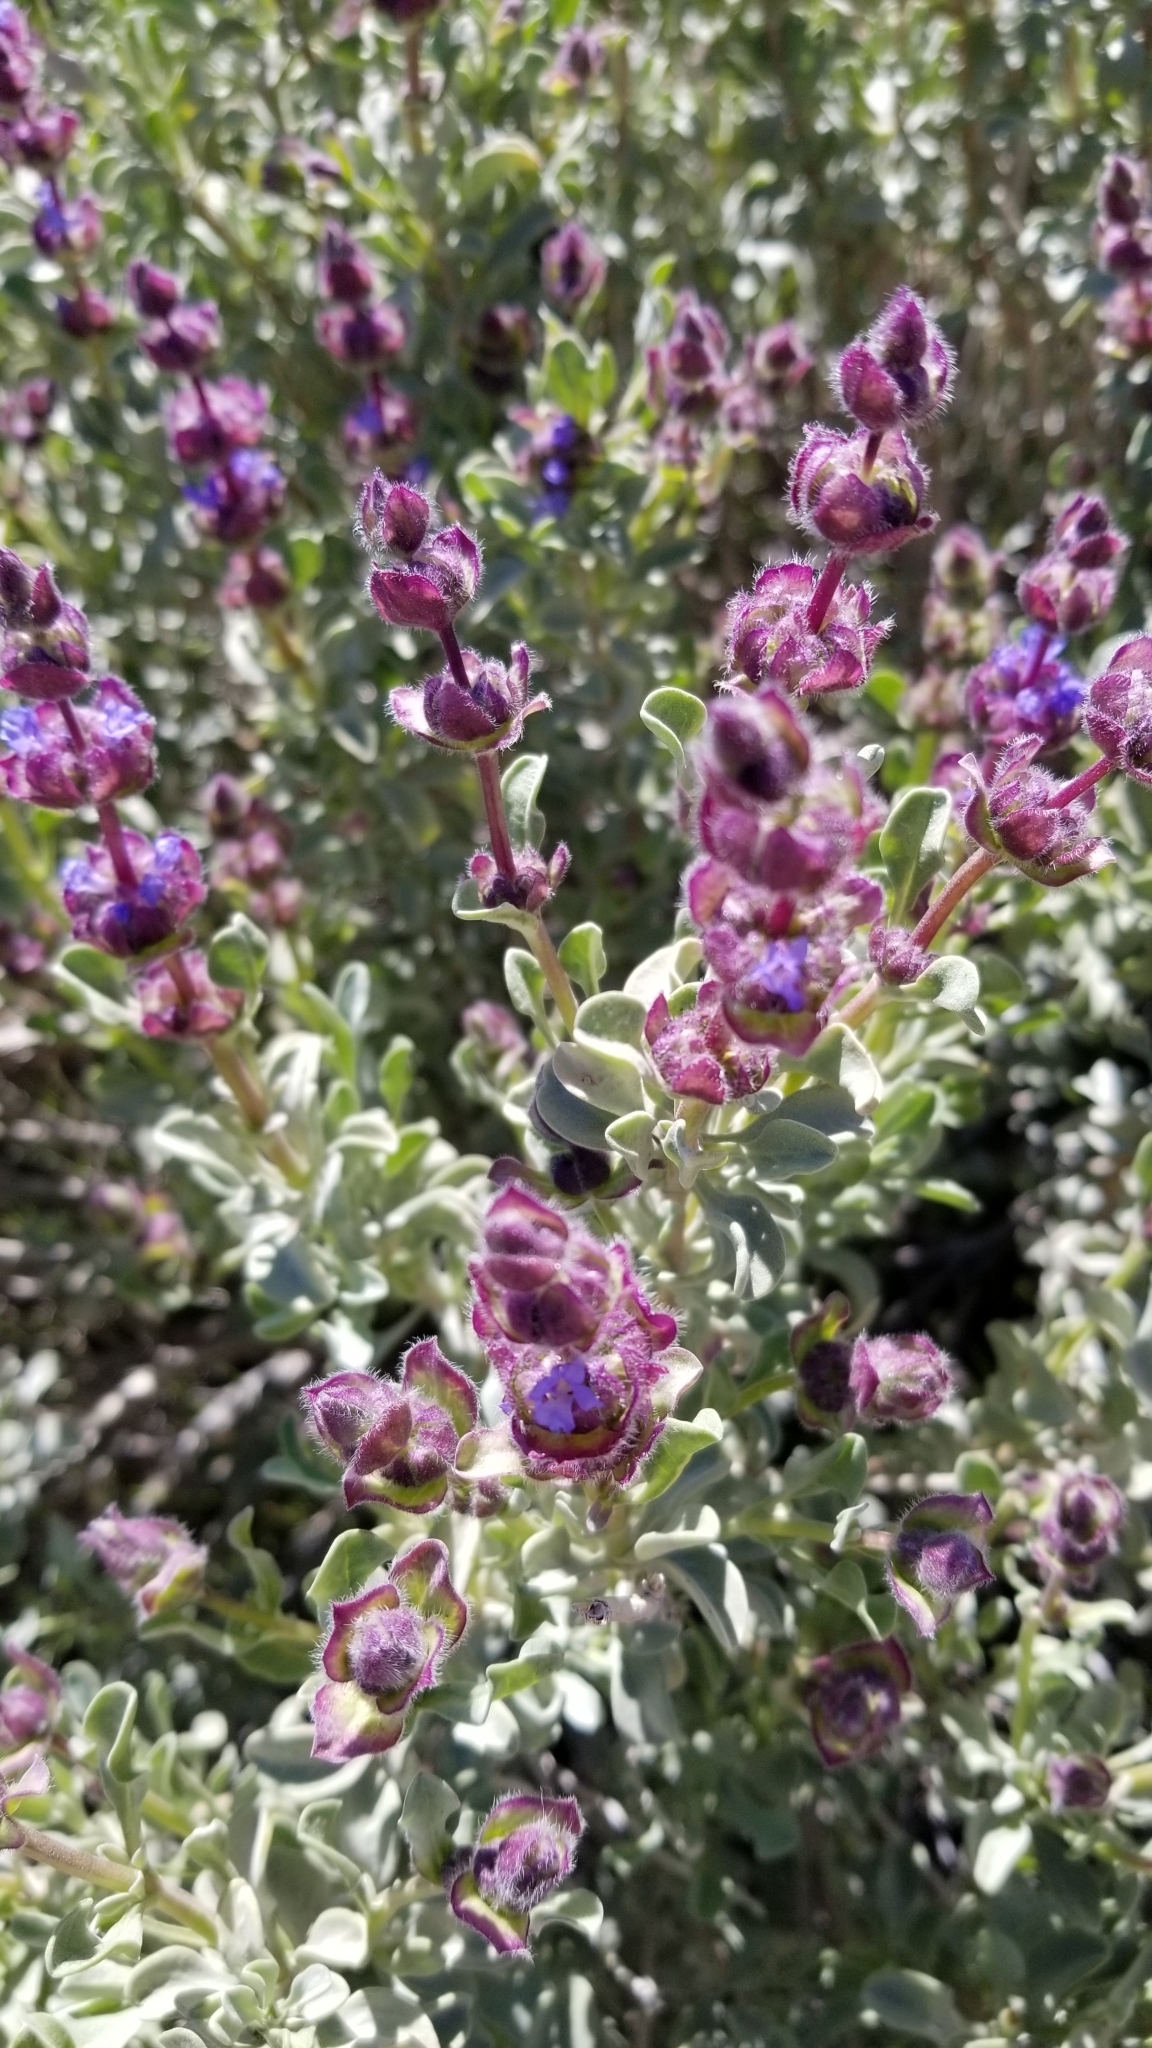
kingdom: Plantae
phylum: Tracheophyta
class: Magnoliopsida
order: Lamiales
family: Lamiaceae
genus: Salvia
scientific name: Salvia dorrii
